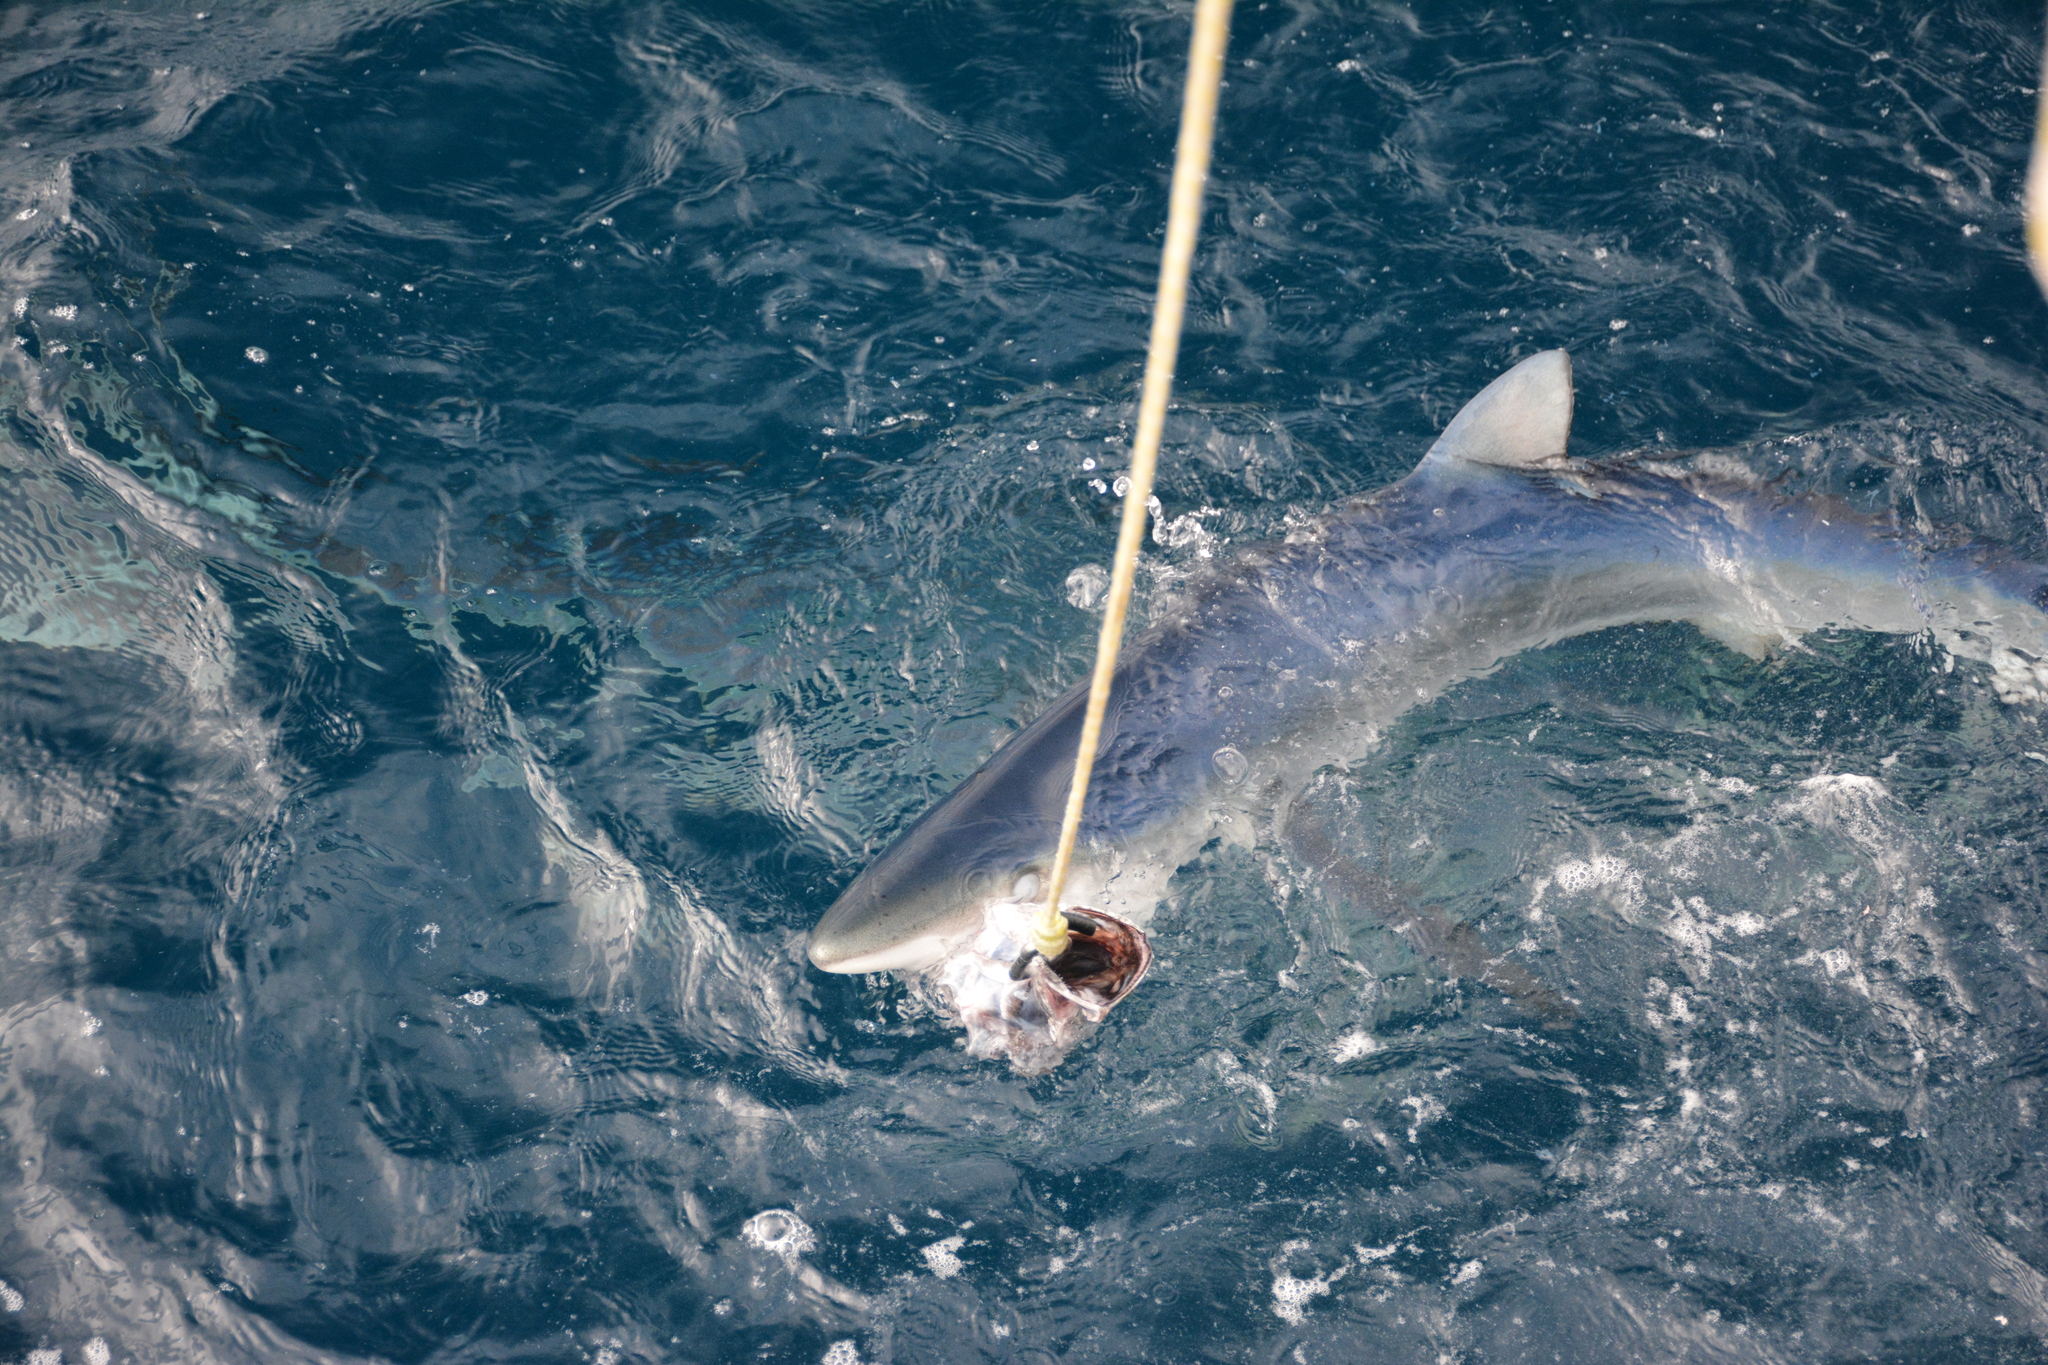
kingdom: Animalia
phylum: Chordata
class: Elasmobranchii
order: Carcharhiniformes
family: Carcharhinidae
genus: Prionace
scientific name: Prionace glauca
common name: Blue shark
